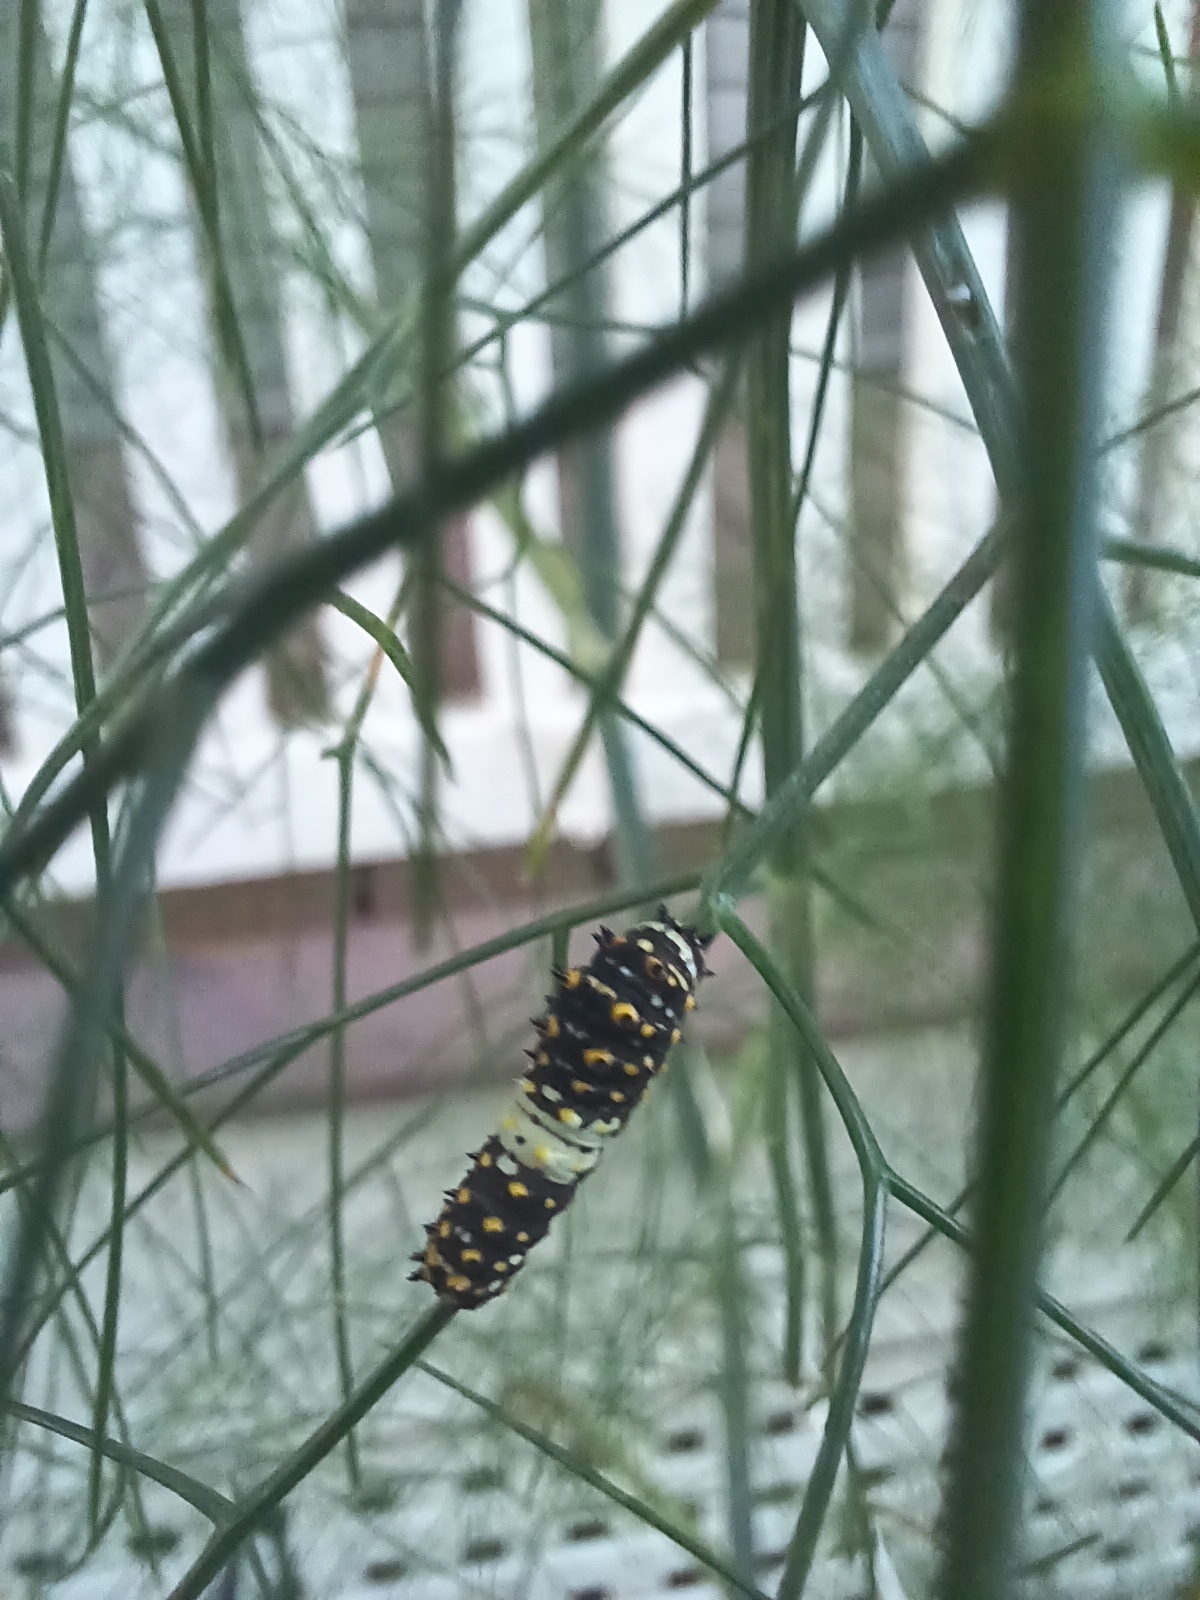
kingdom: Animalia
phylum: Arthropoda
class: Insecta
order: Lepidoptera
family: Papilionidae
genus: Papilio
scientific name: Papilio polyxenes
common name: Black swallowtail
